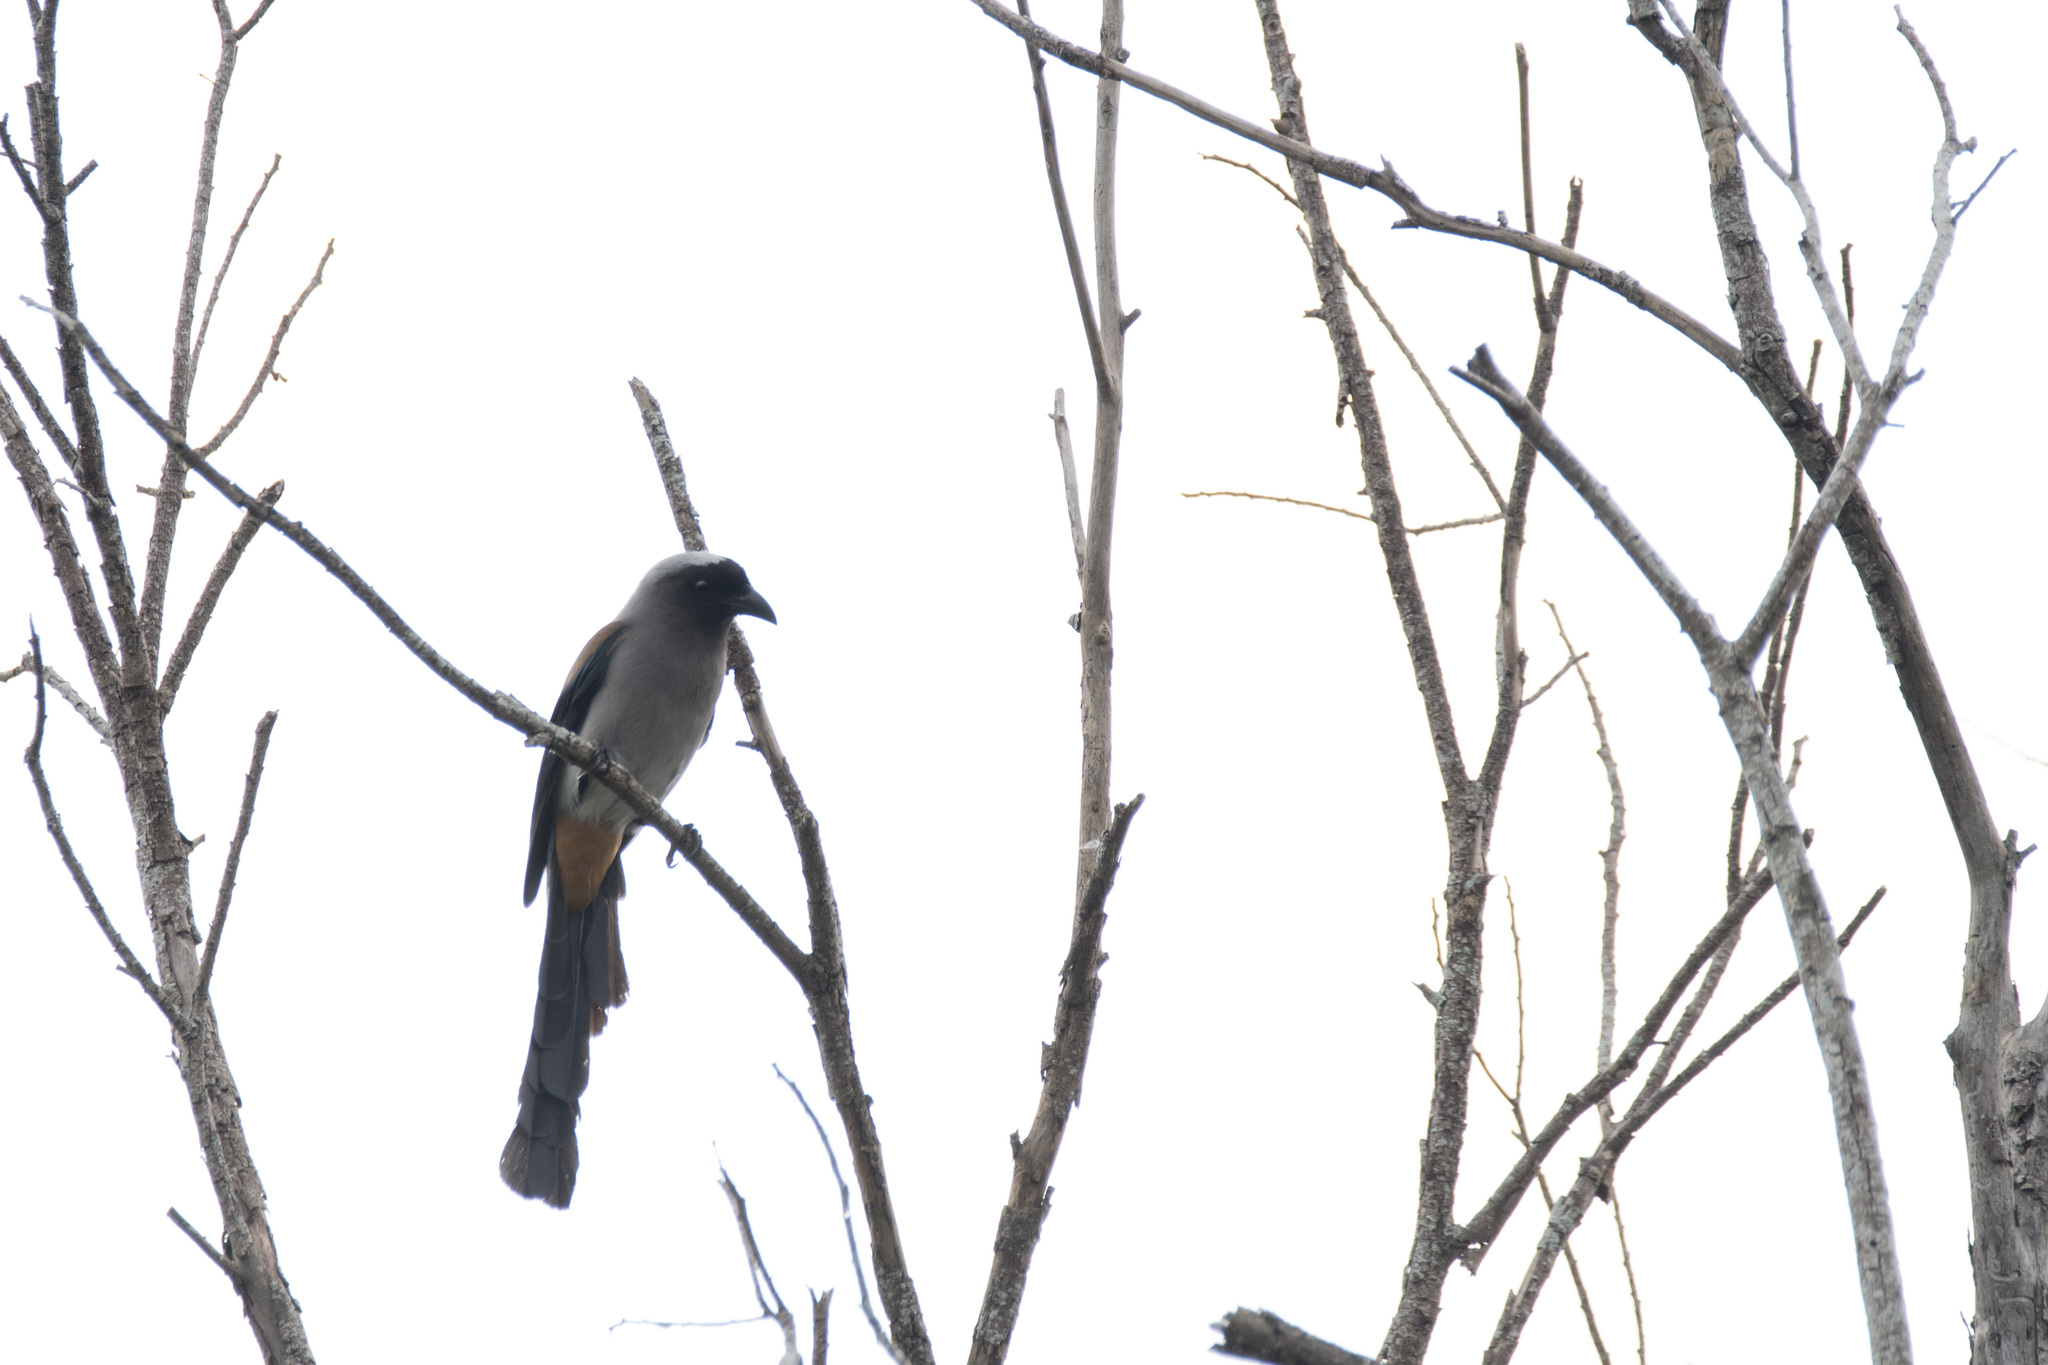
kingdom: Animalia
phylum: Chordata
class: Aves
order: Passeriformes
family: Corvidae
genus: Dendrocitta
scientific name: Dendrocitta formosae
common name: Grey treepie
